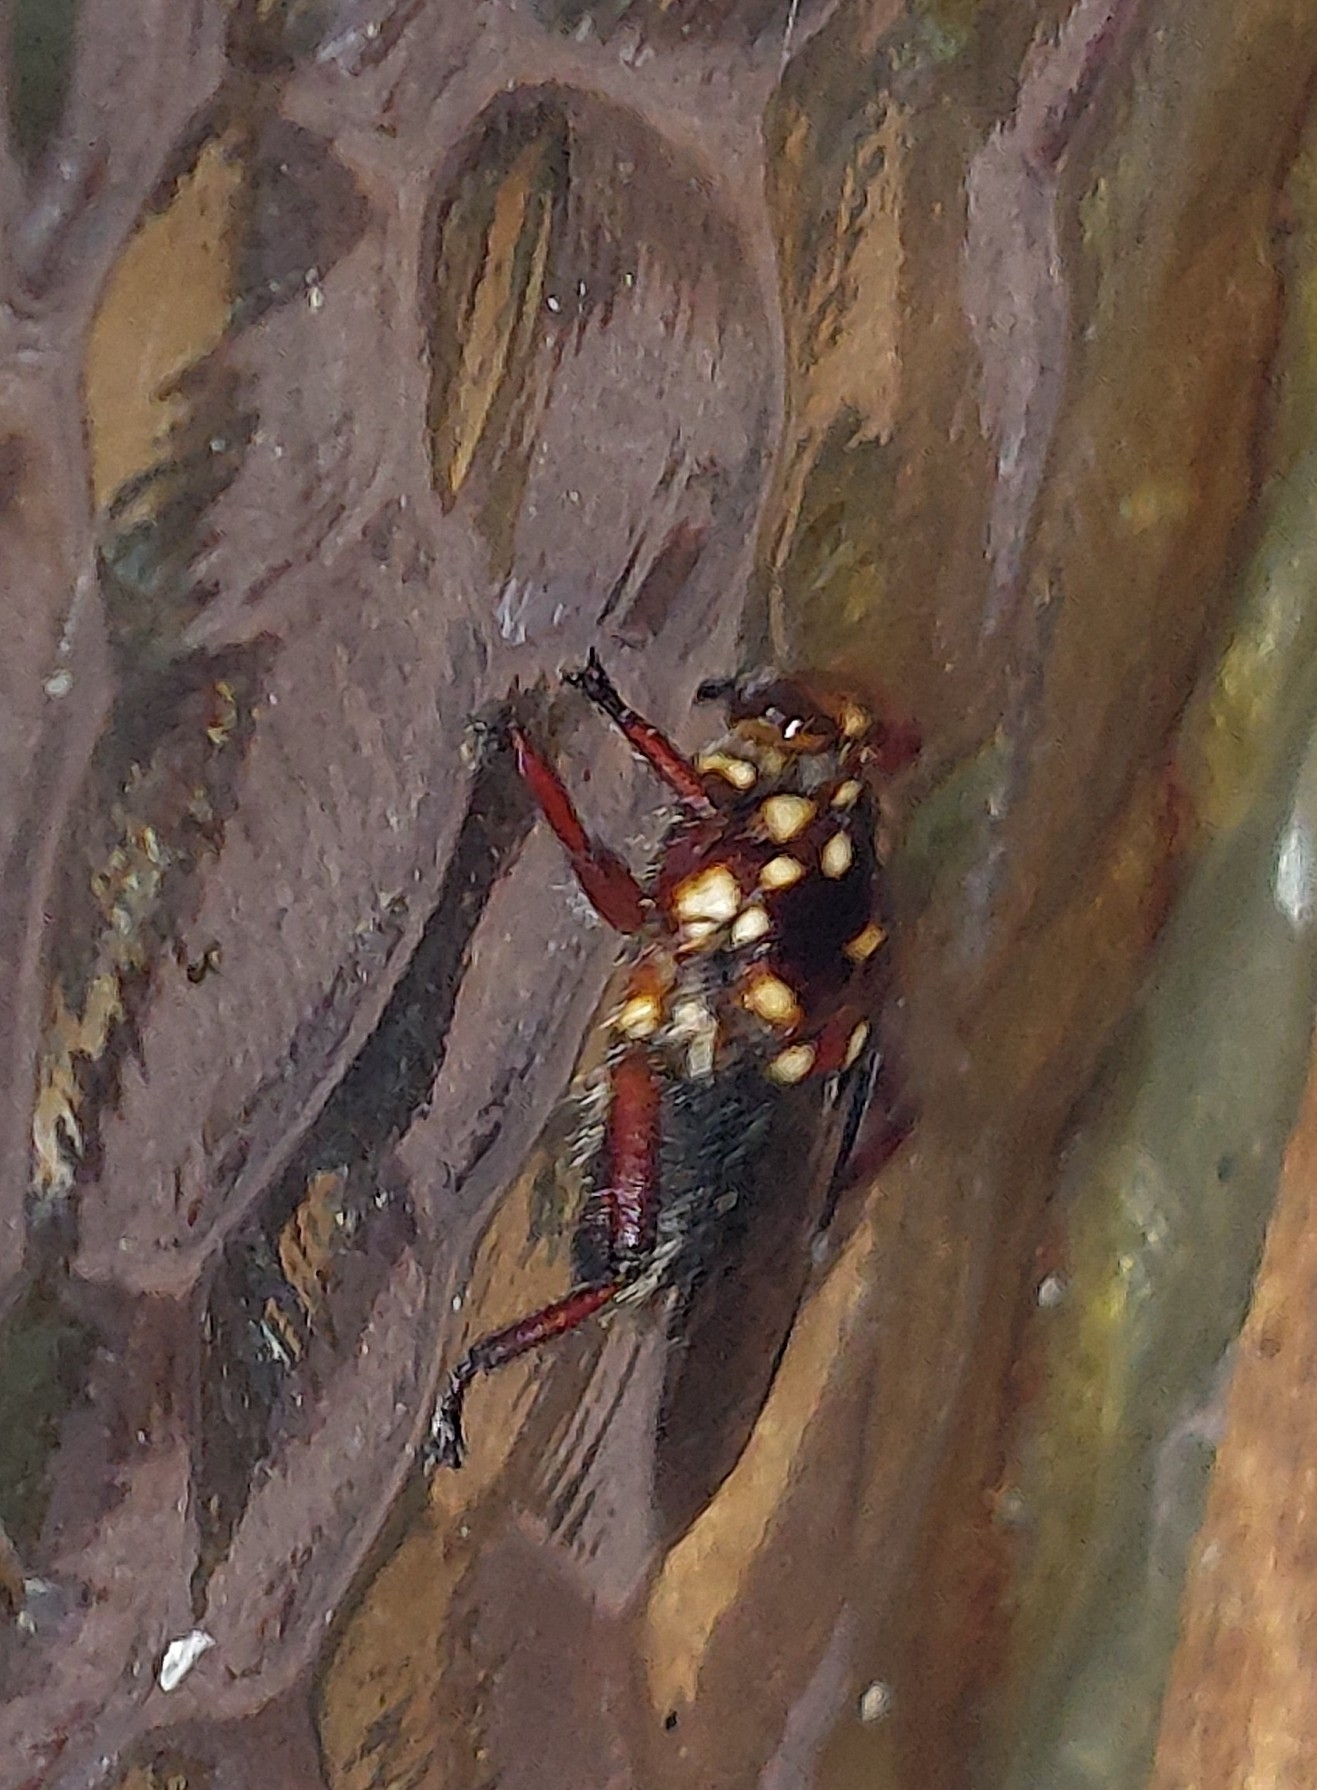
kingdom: Animalia
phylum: Arthropoda
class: Insecta
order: Diptera
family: Hippoboscidae
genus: Hippobosca
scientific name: Hippobosca rufipes
